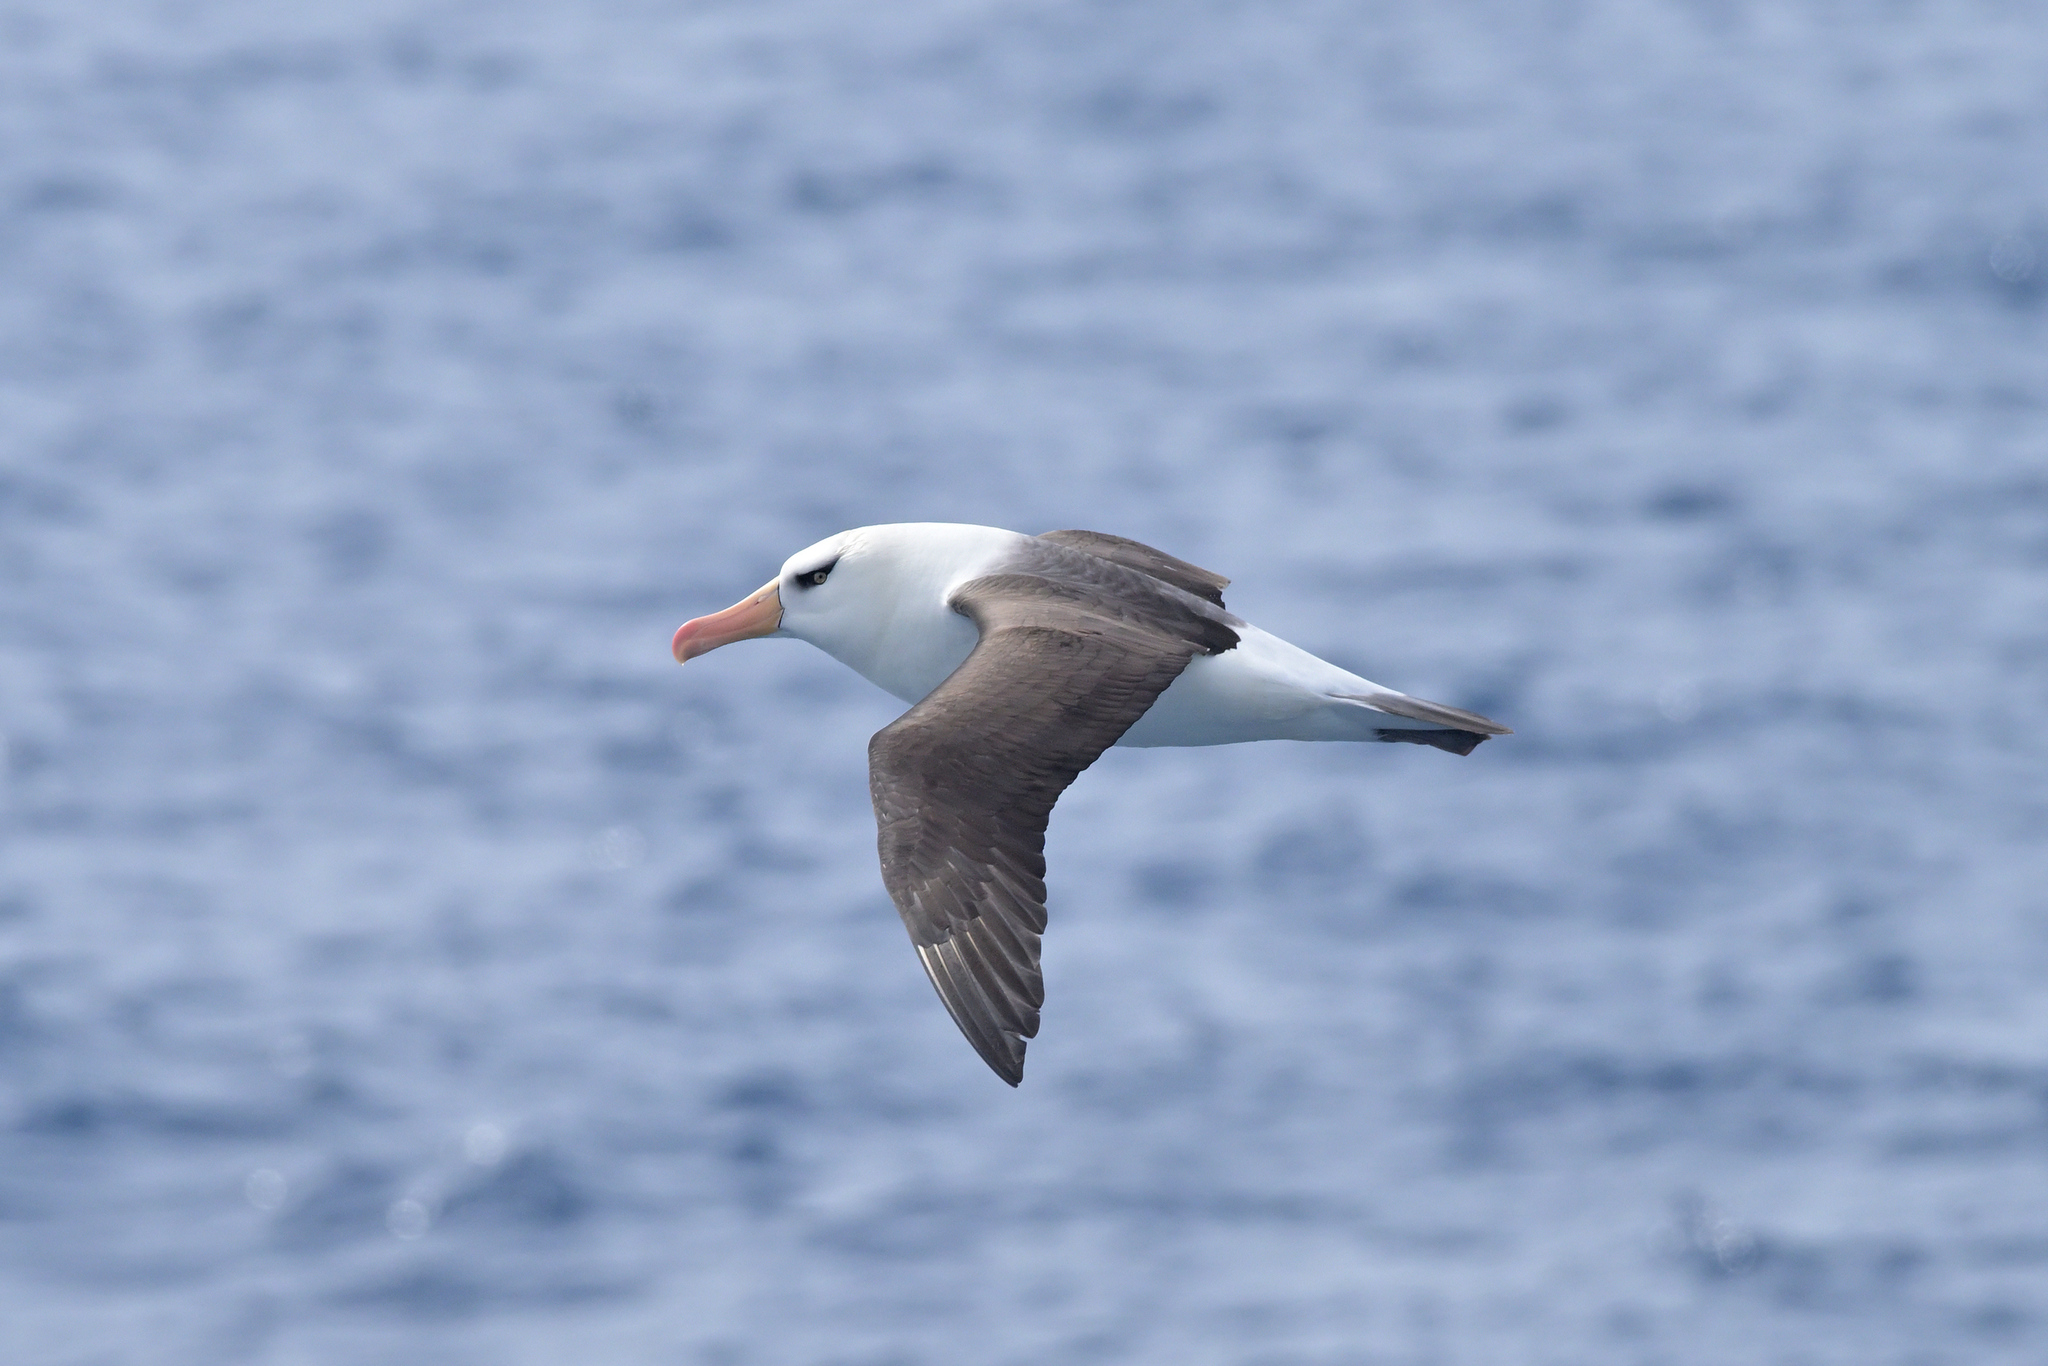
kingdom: Animalia
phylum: Chordata
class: Aves
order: Procellariiformes
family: Diomedeidae
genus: Thalassarche
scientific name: Thalassarche impavida
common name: Campbell albatross
